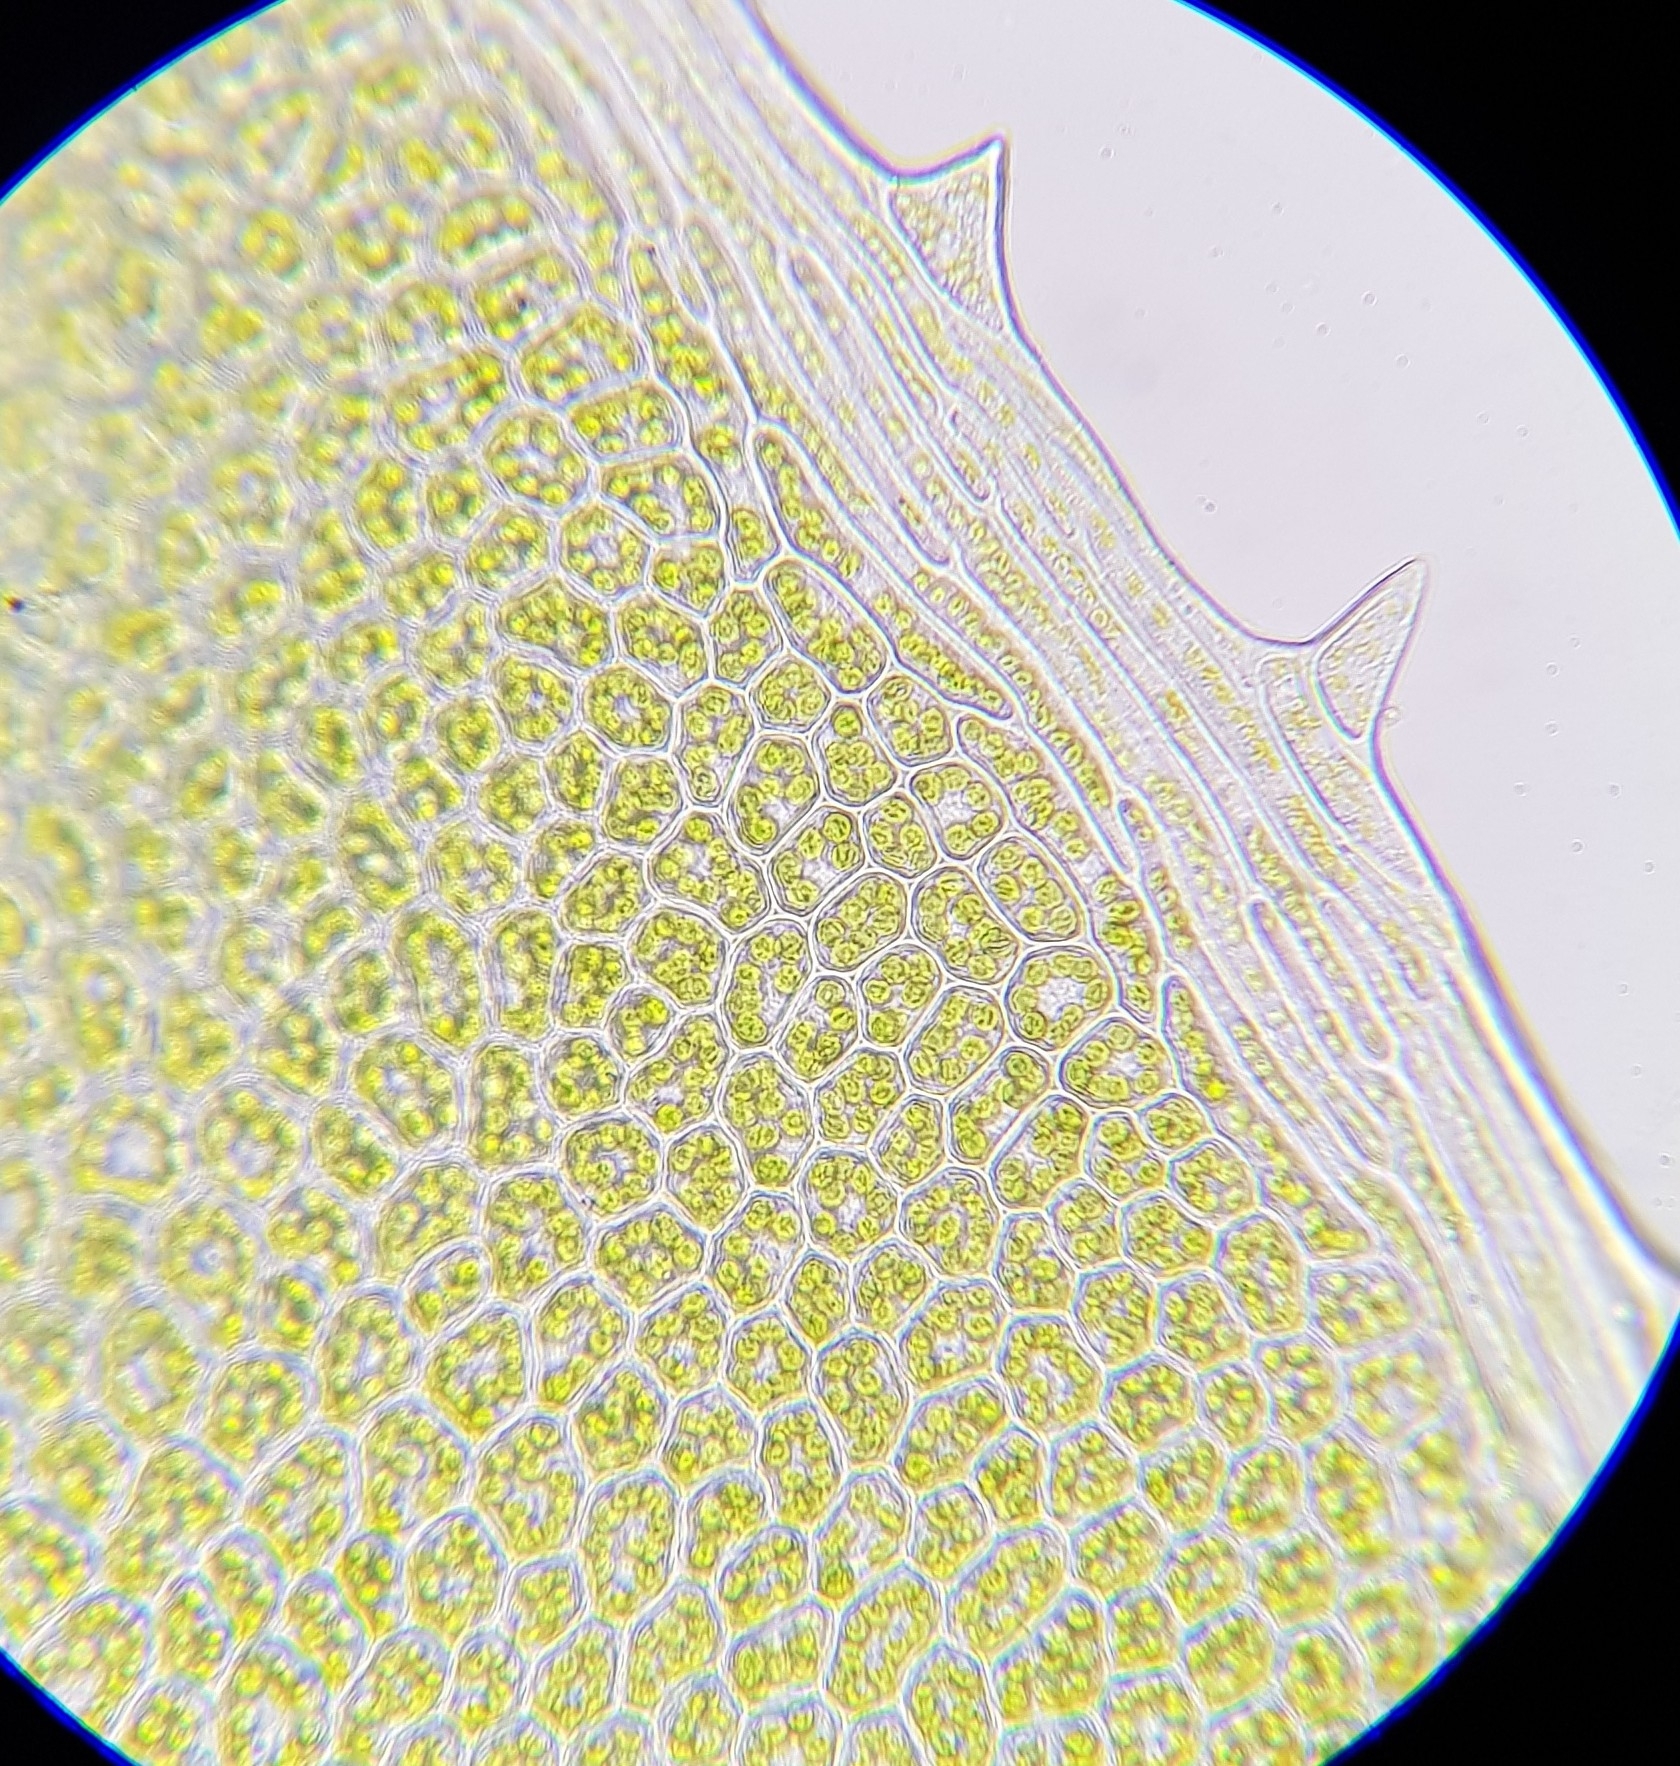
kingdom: Plantae
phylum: Bryophyta
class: Bryopsida
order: Bryales
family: Mniaceae
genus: Plagiomnium
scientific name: Plagiomnium undulatum
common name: Hart's-tongue thyme-moss
